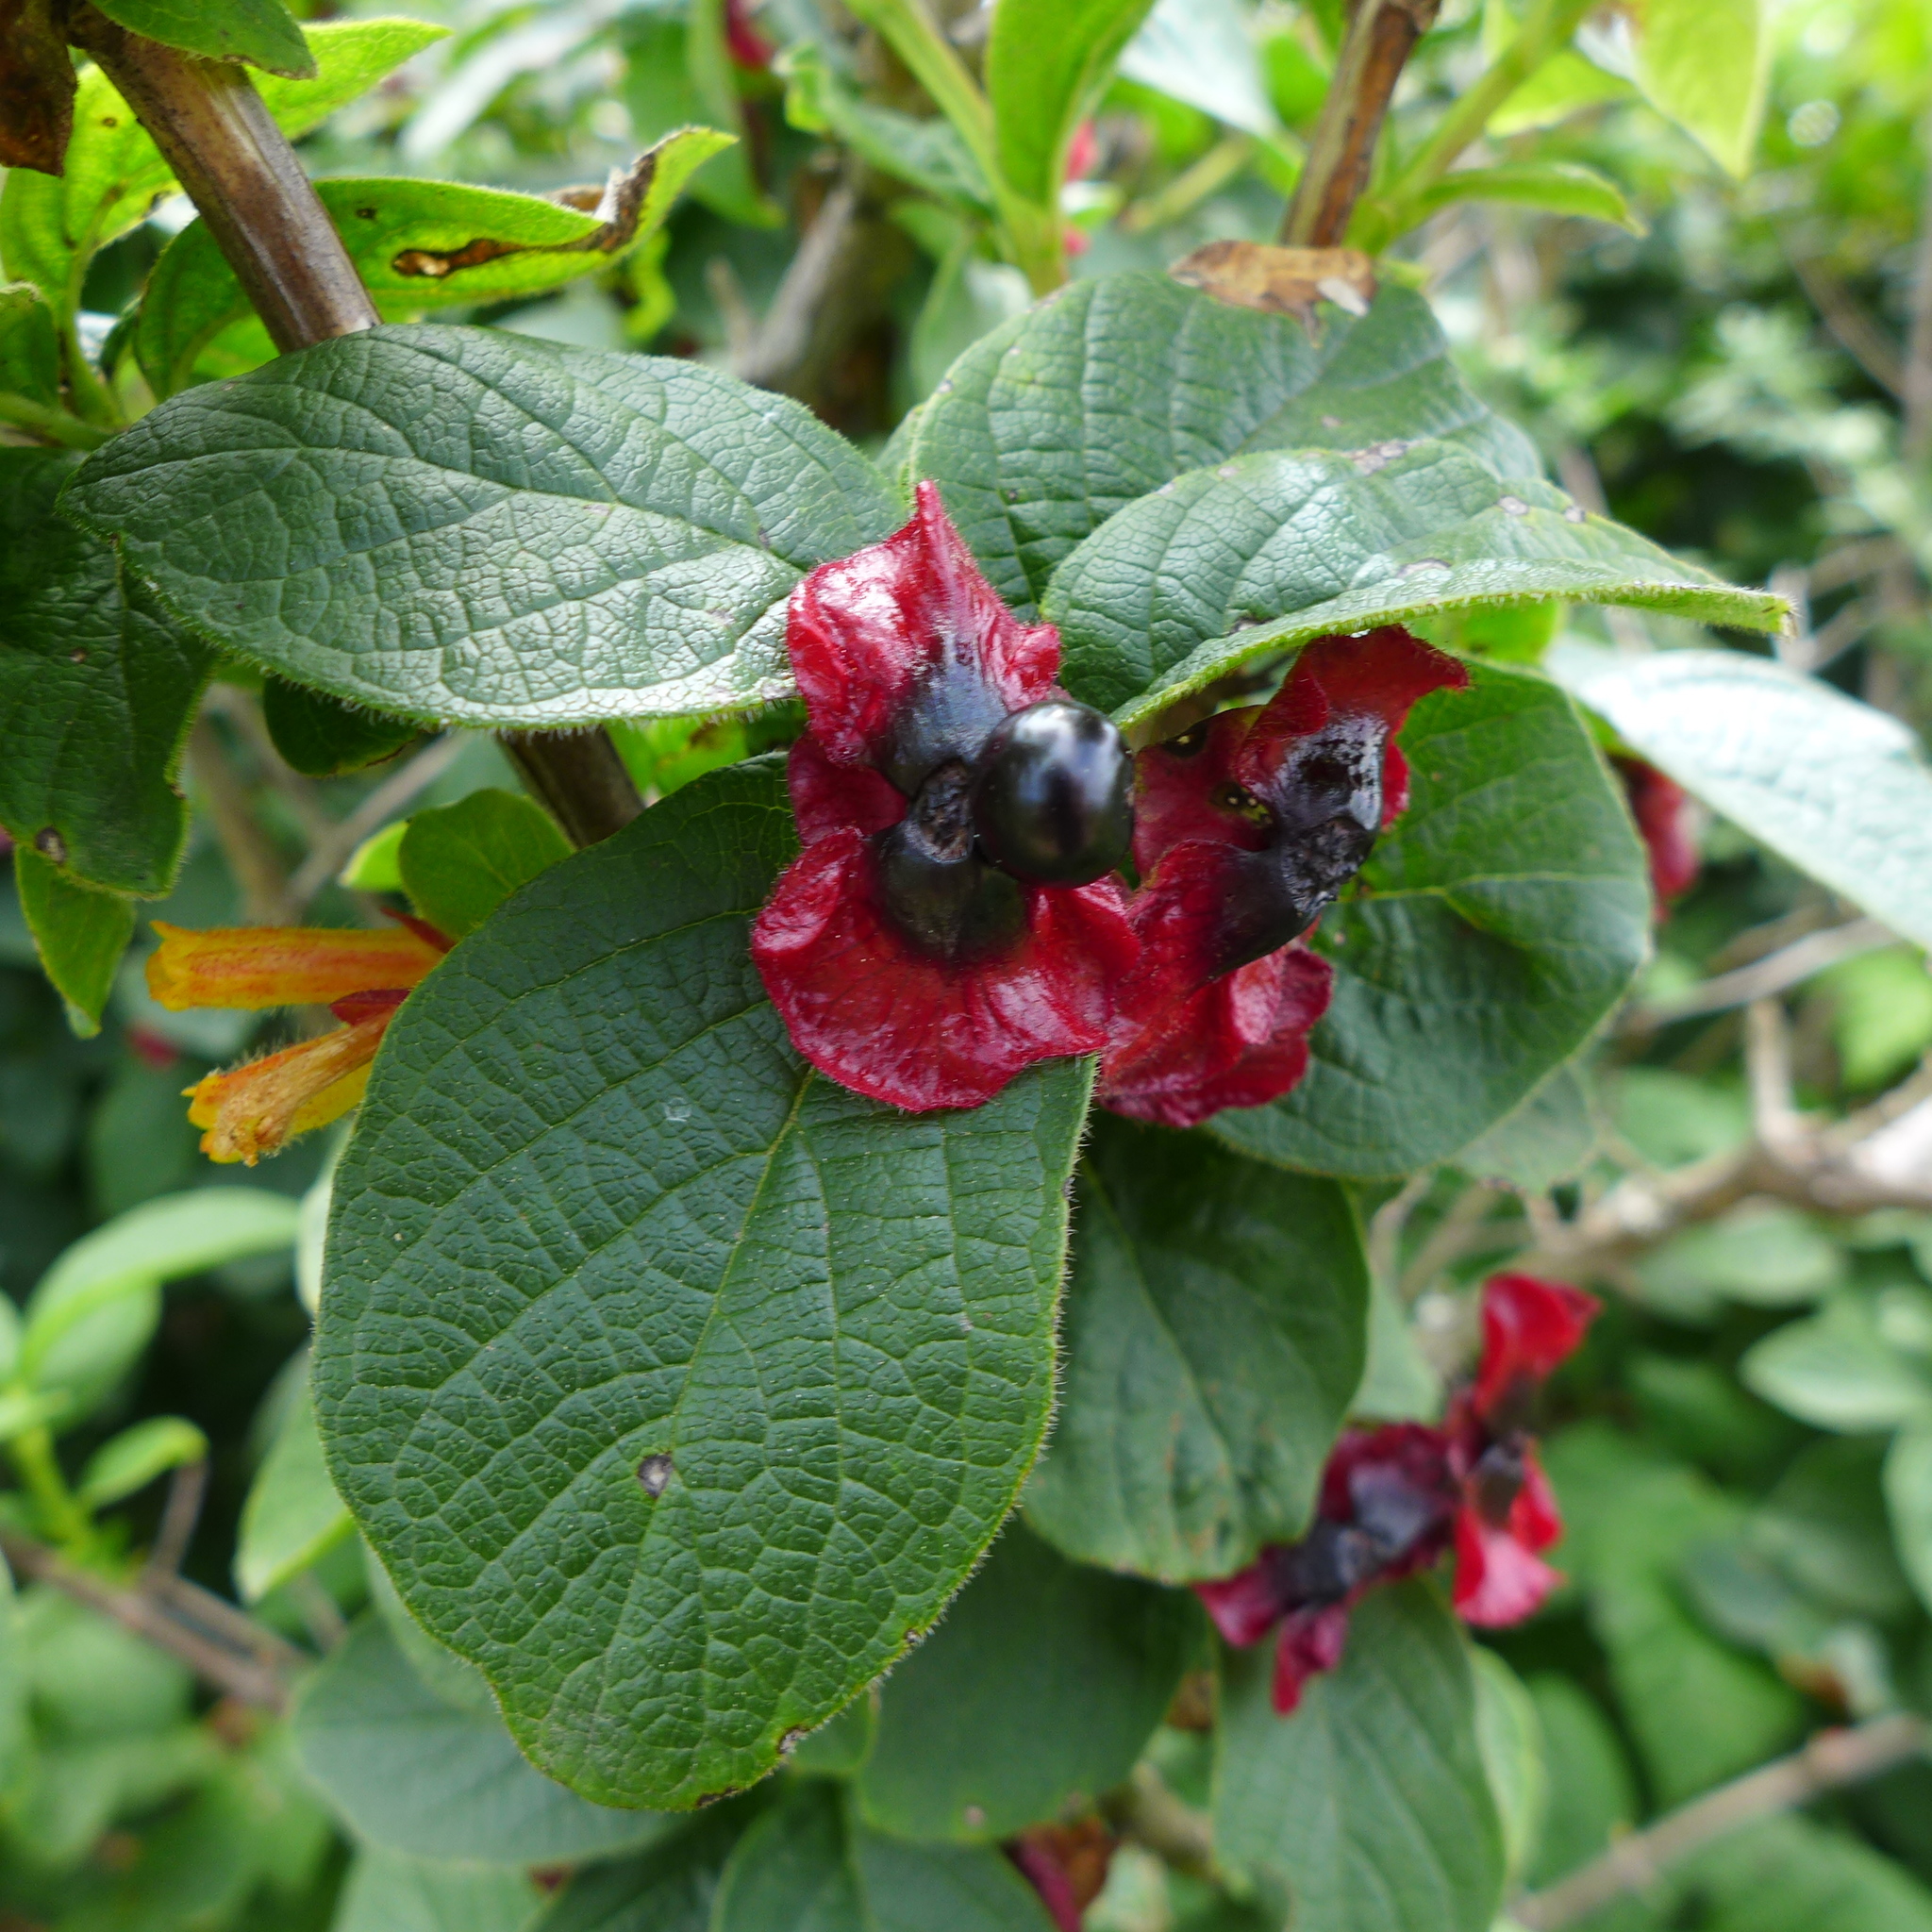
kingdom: Plantae
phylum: Tracheophyta
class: Magnoliopsida
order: Dipsacales
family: Caprifoliaceae
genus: Lonicera
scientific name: Lonicera involucrata
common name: Californian honeysuckle
